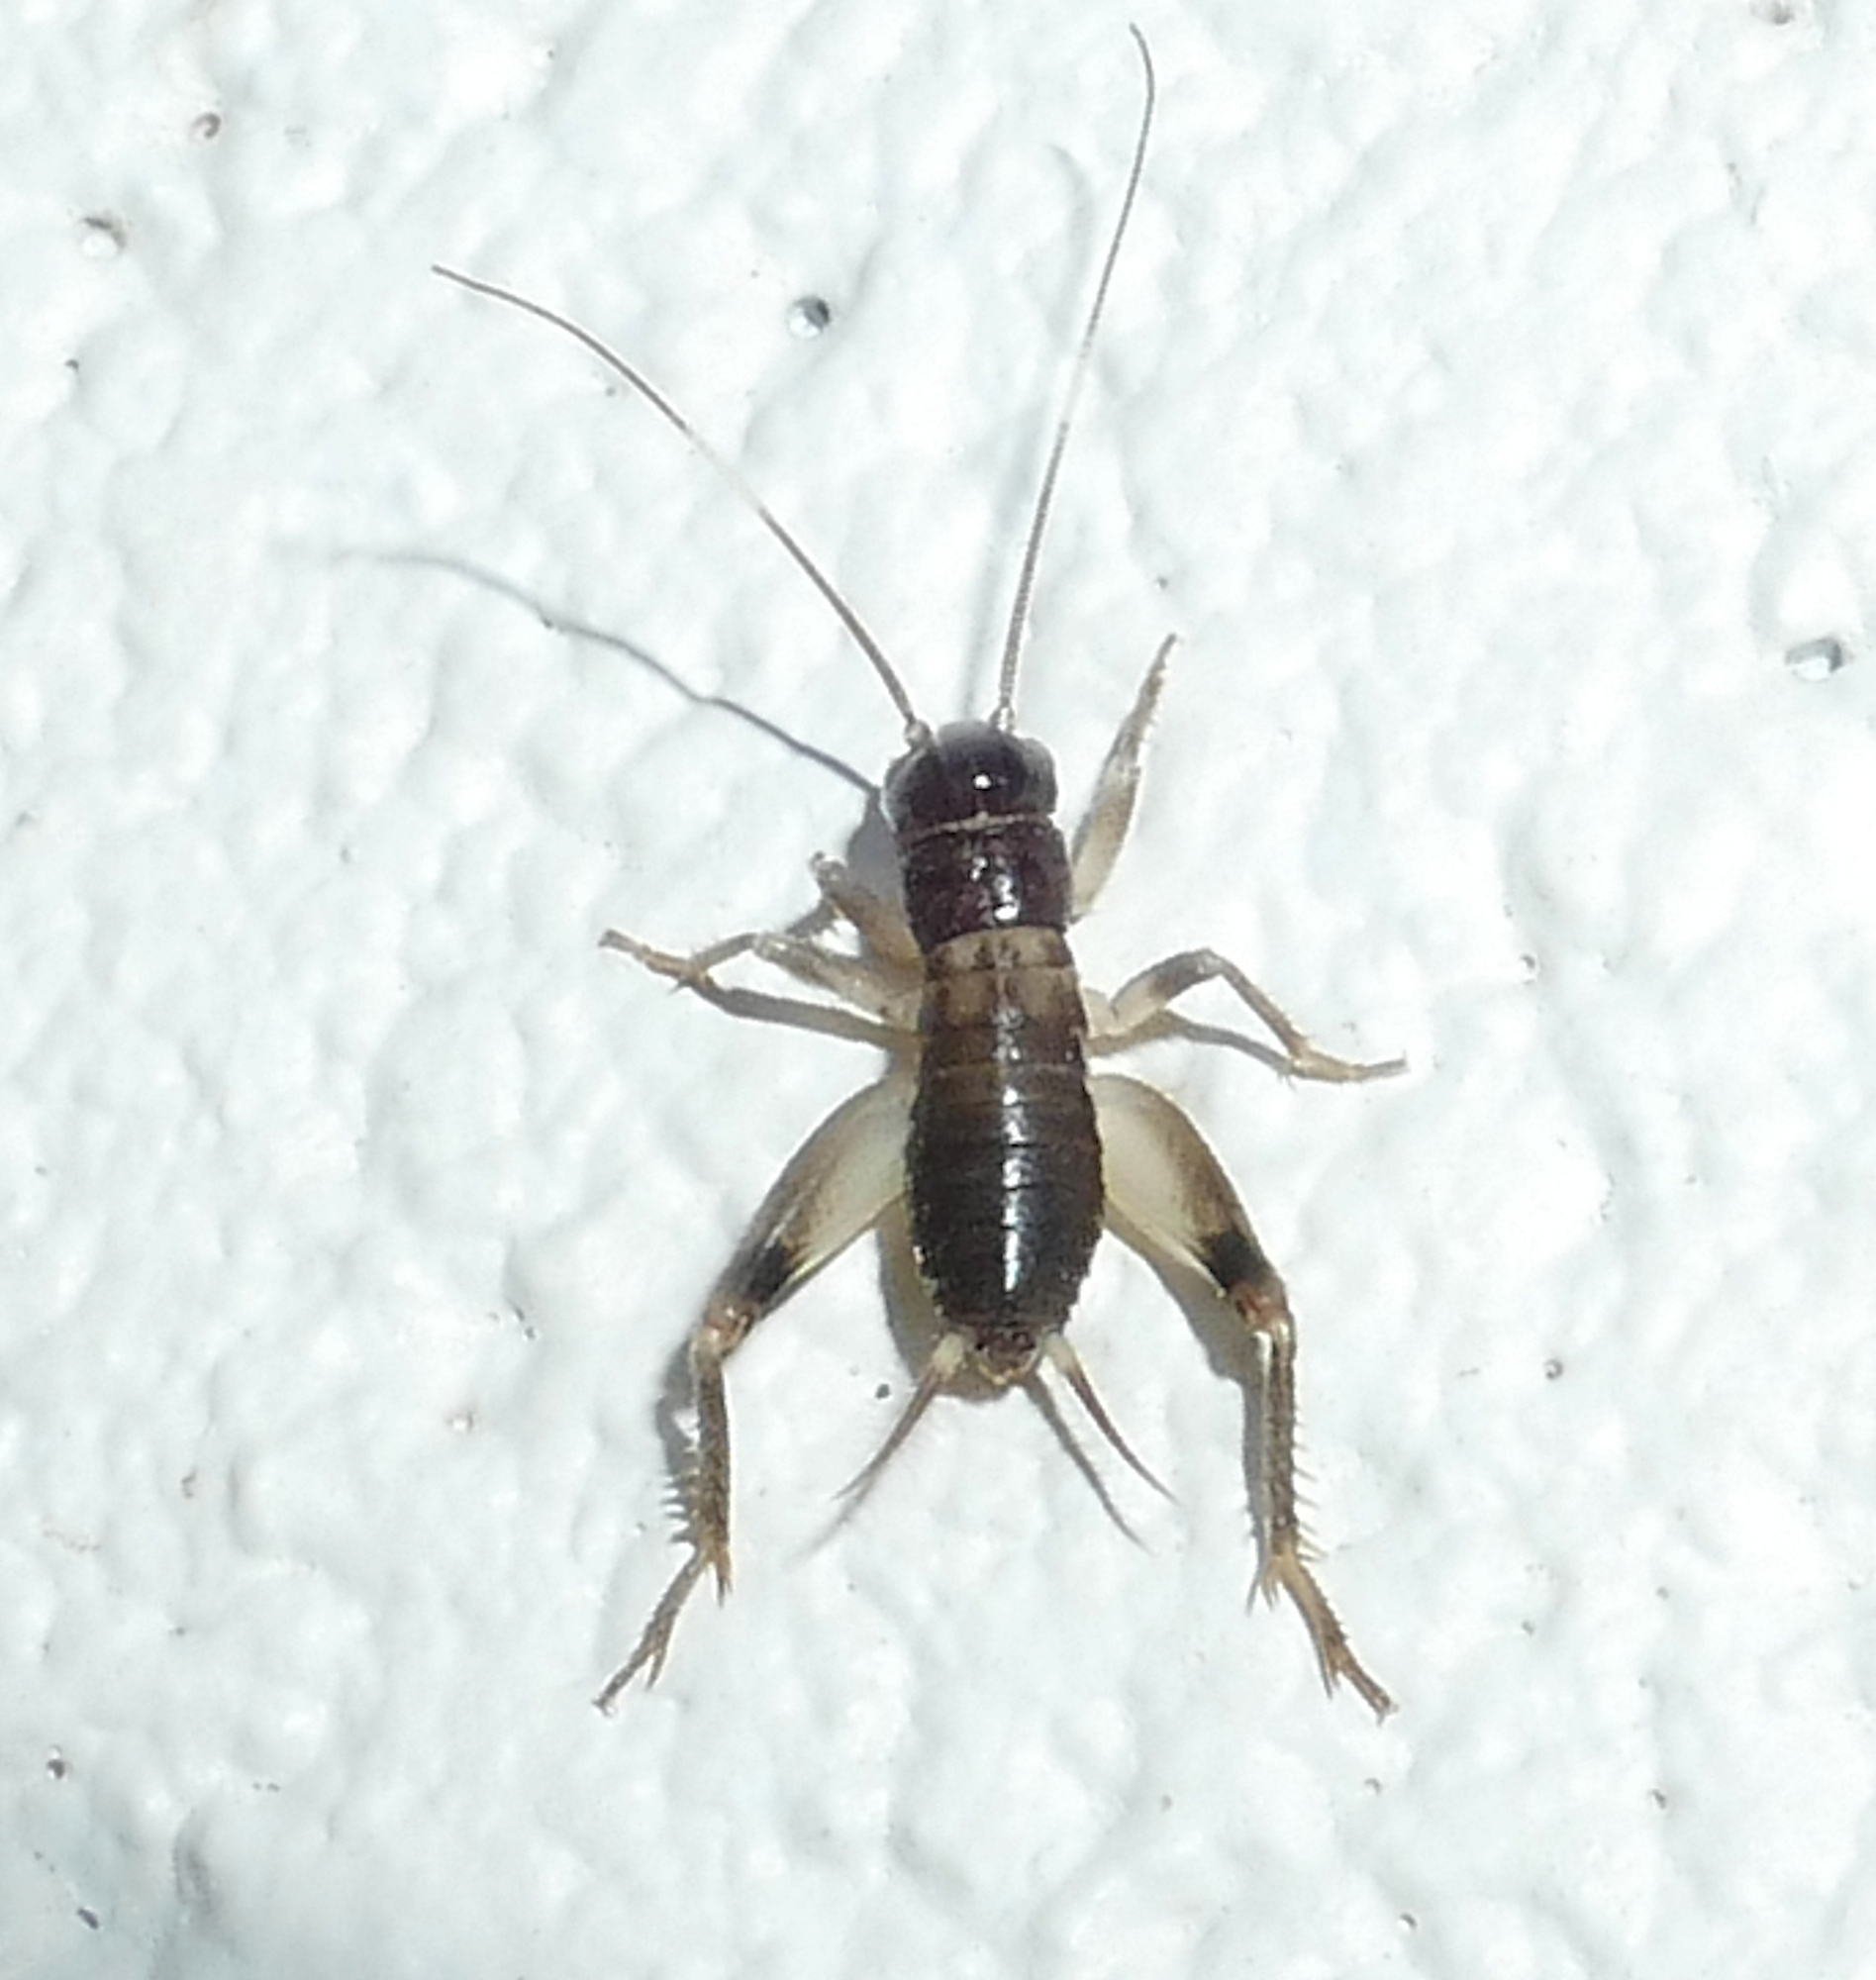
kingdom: Animalia
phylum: Arthropoda
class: Insecta
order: Orthoptera
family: Gryllidae
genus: Anurogryllus
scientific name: Anurogryllus arboreus
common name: Common short-tailed cricket
